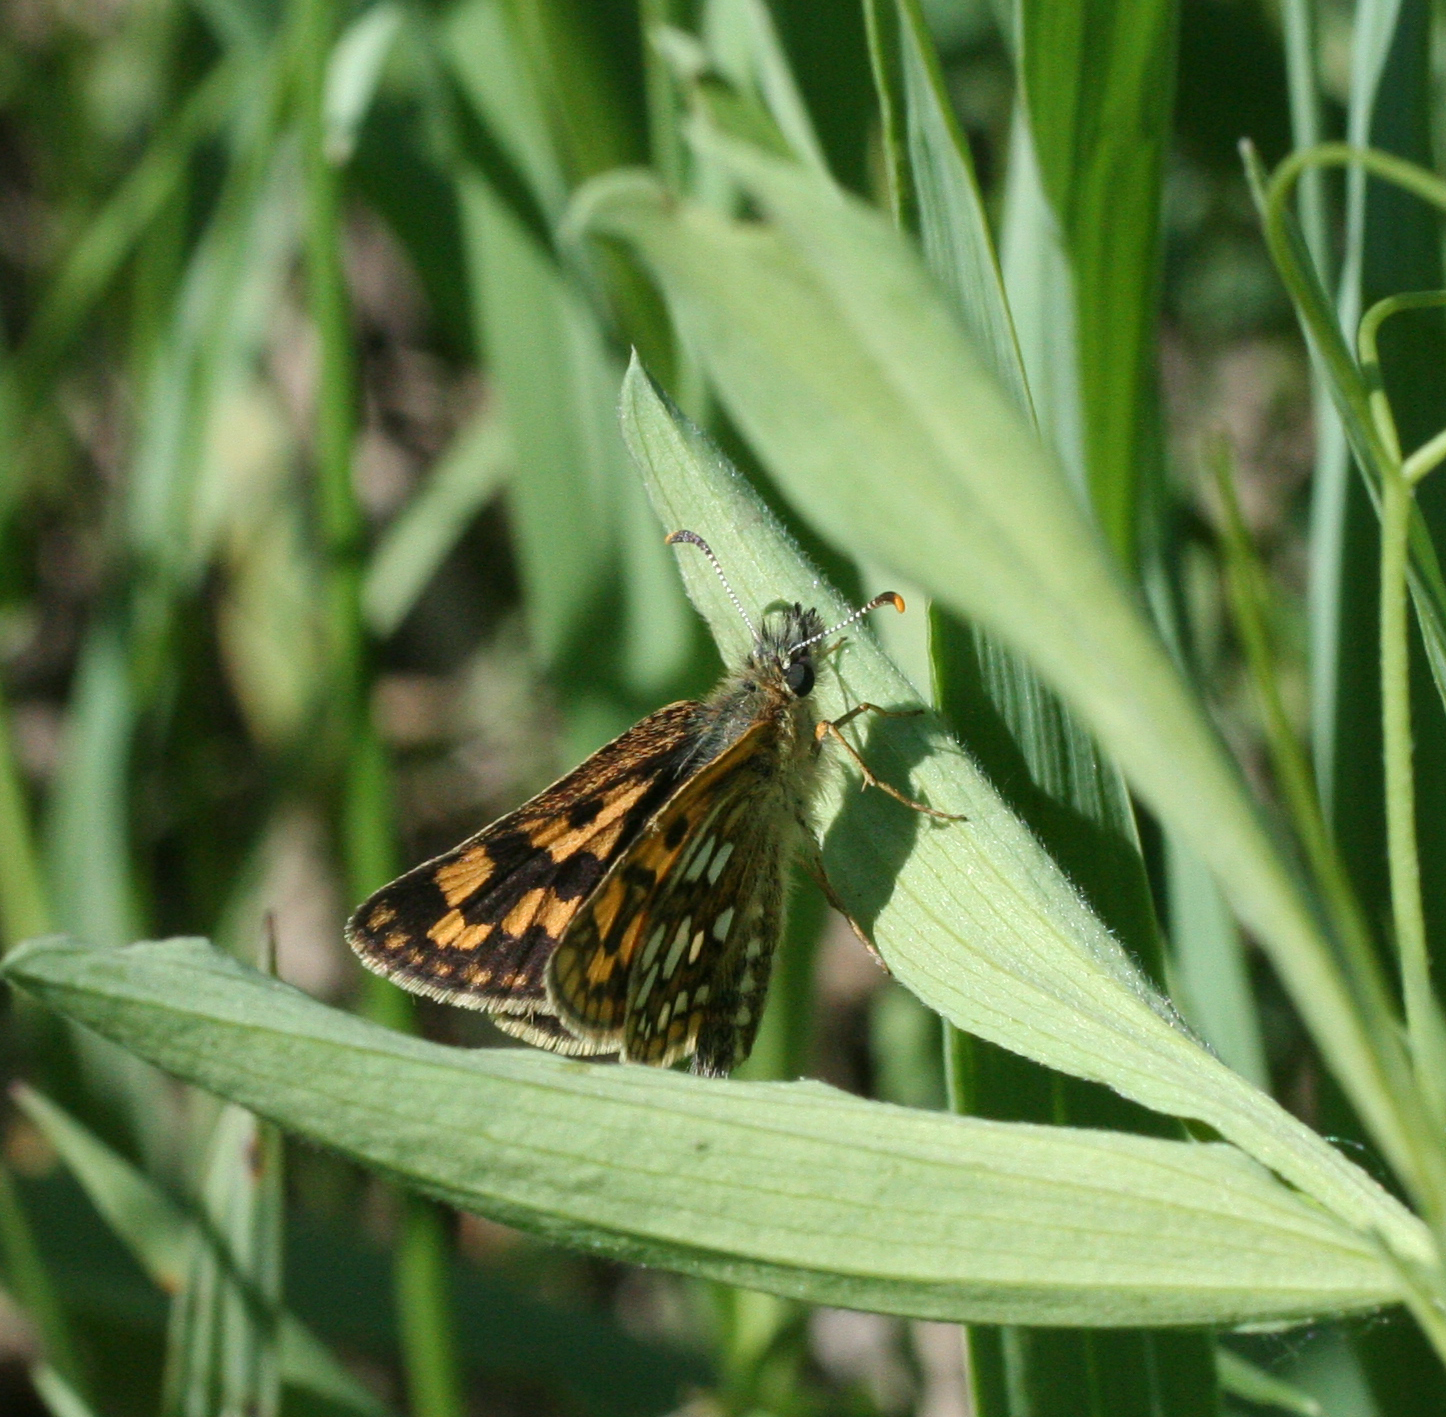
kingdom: Animalia
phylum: Arthropoda
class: Insecta
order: Lepidoptera
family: Hesperiidae
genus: Carterocephalus
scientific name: Carterocephalus palaemon
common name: Chequered skipper
